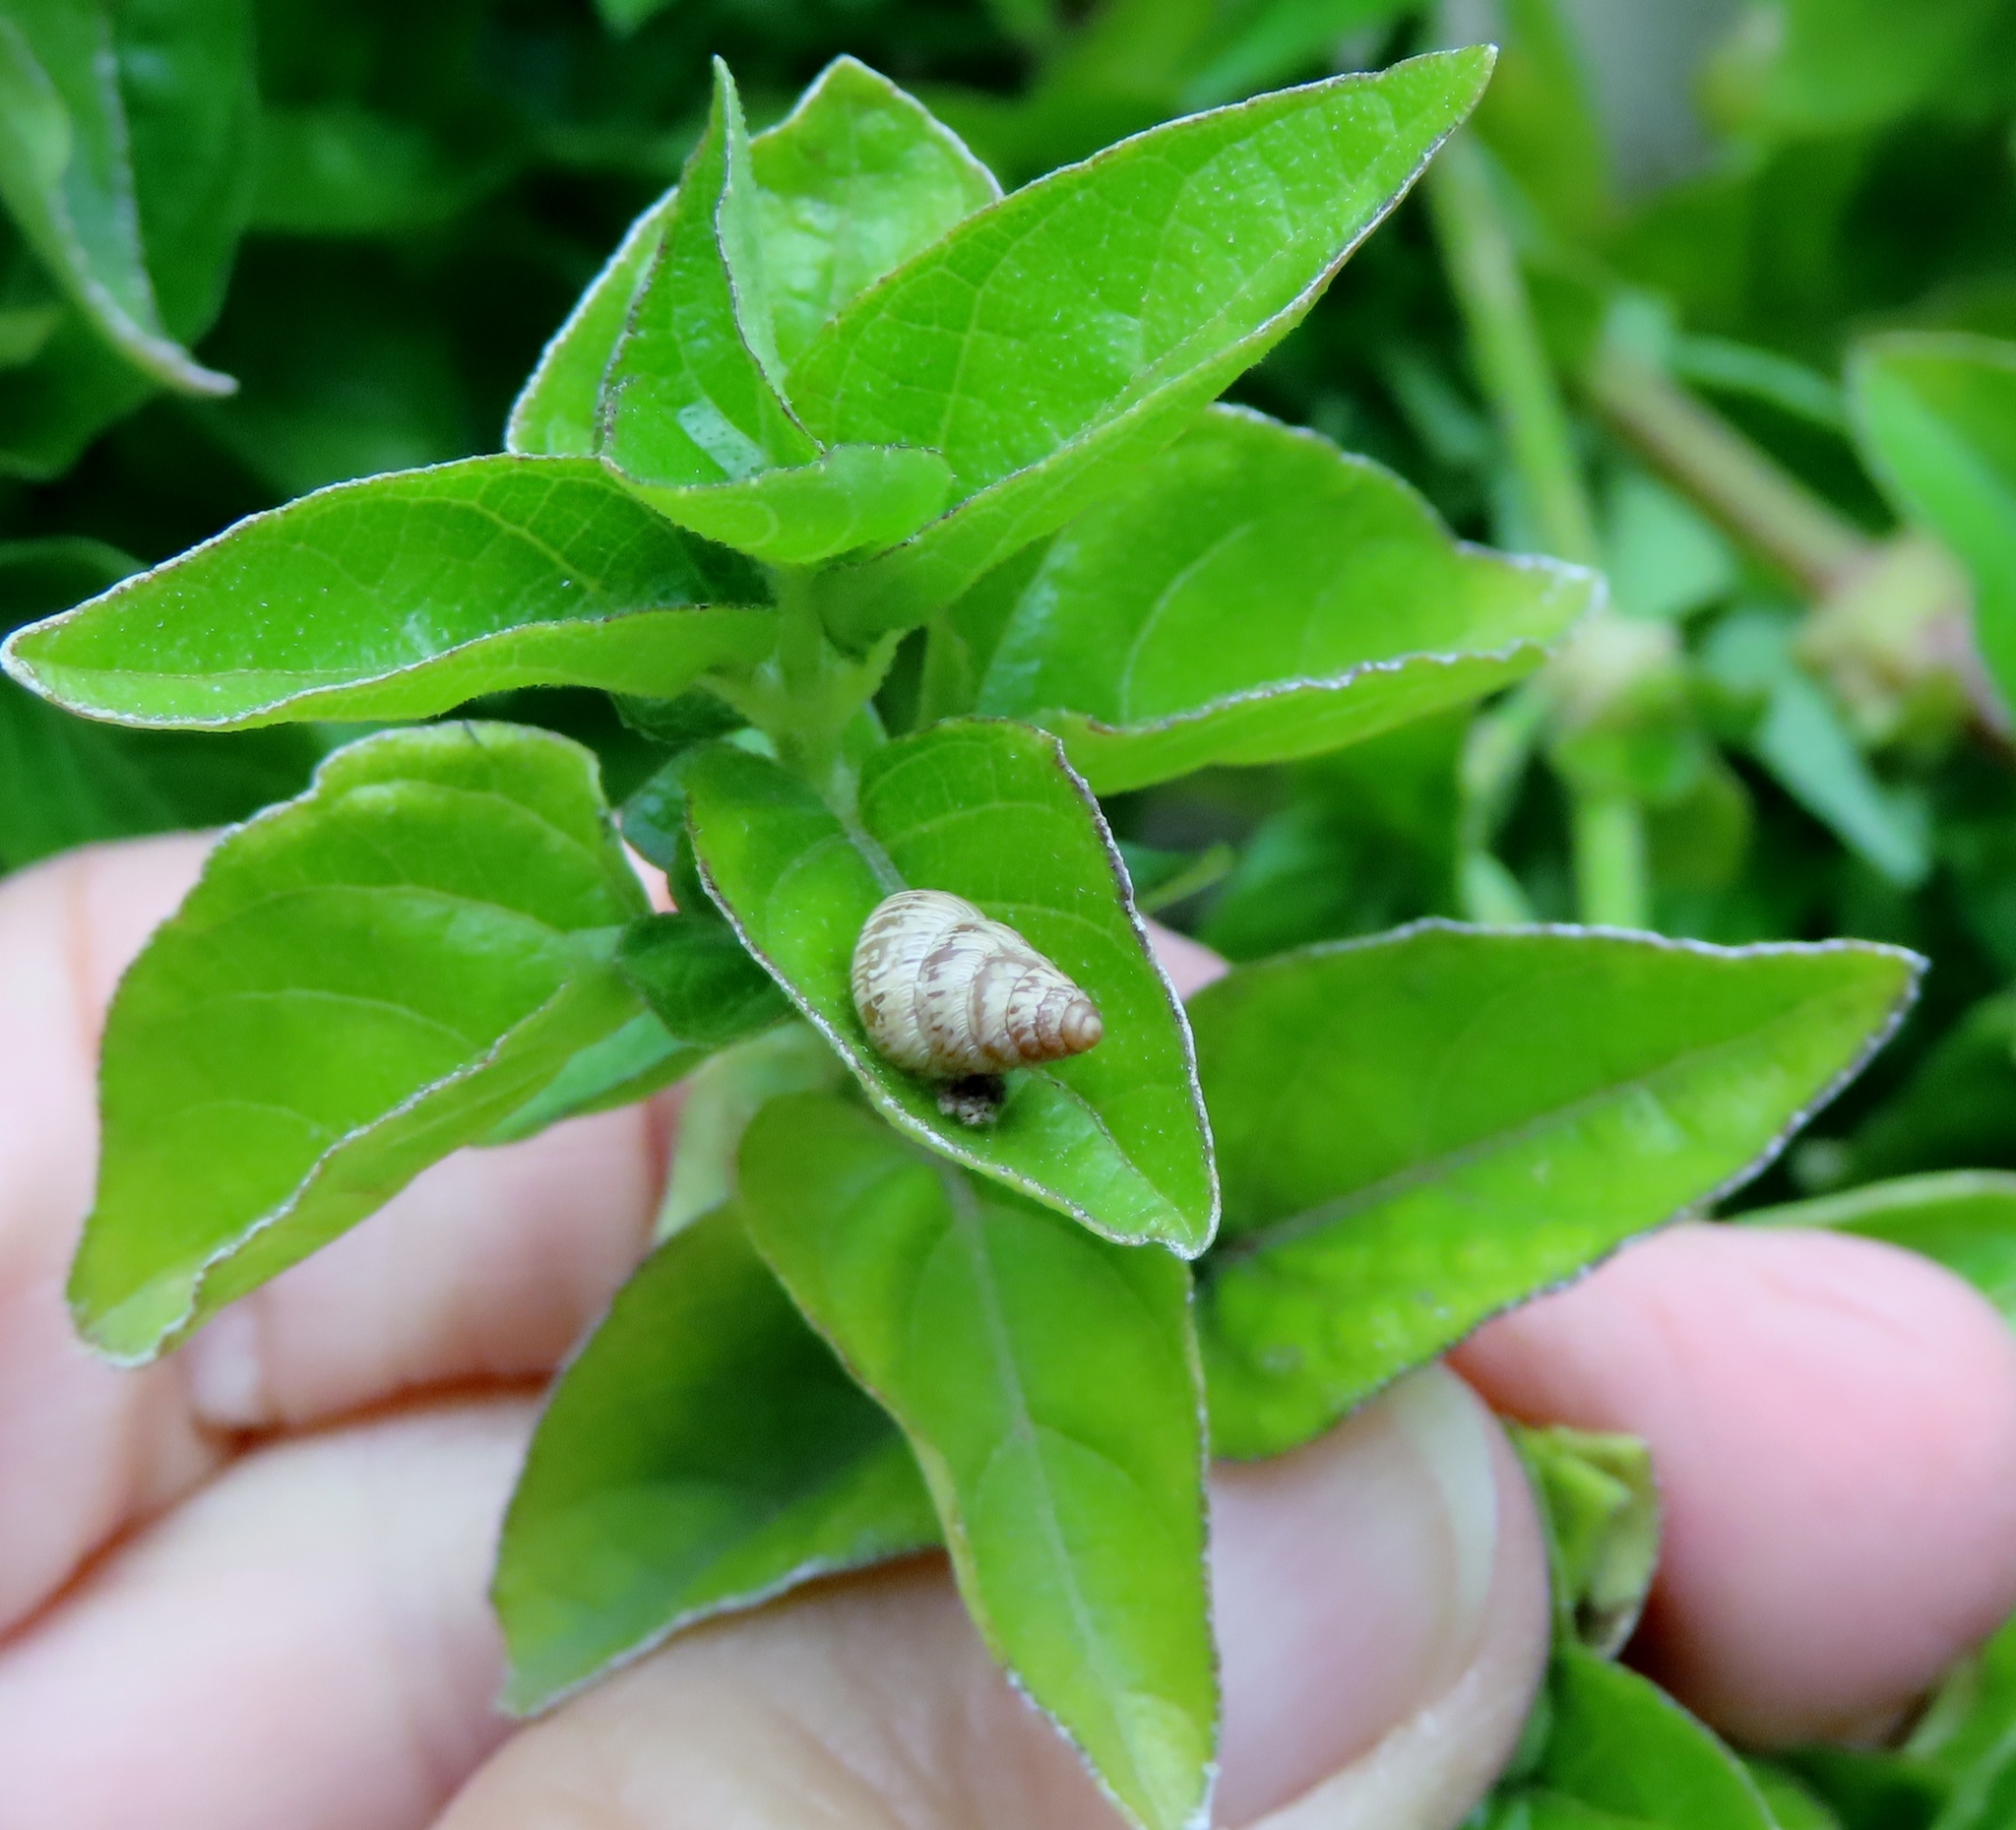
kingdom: Animalia
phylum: Mollusca
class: Gastropoda
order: Stylommatophora
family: Geomitridae
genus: Cochlicella
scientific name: Cochlicella barbara
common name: Potbellied helicellid
